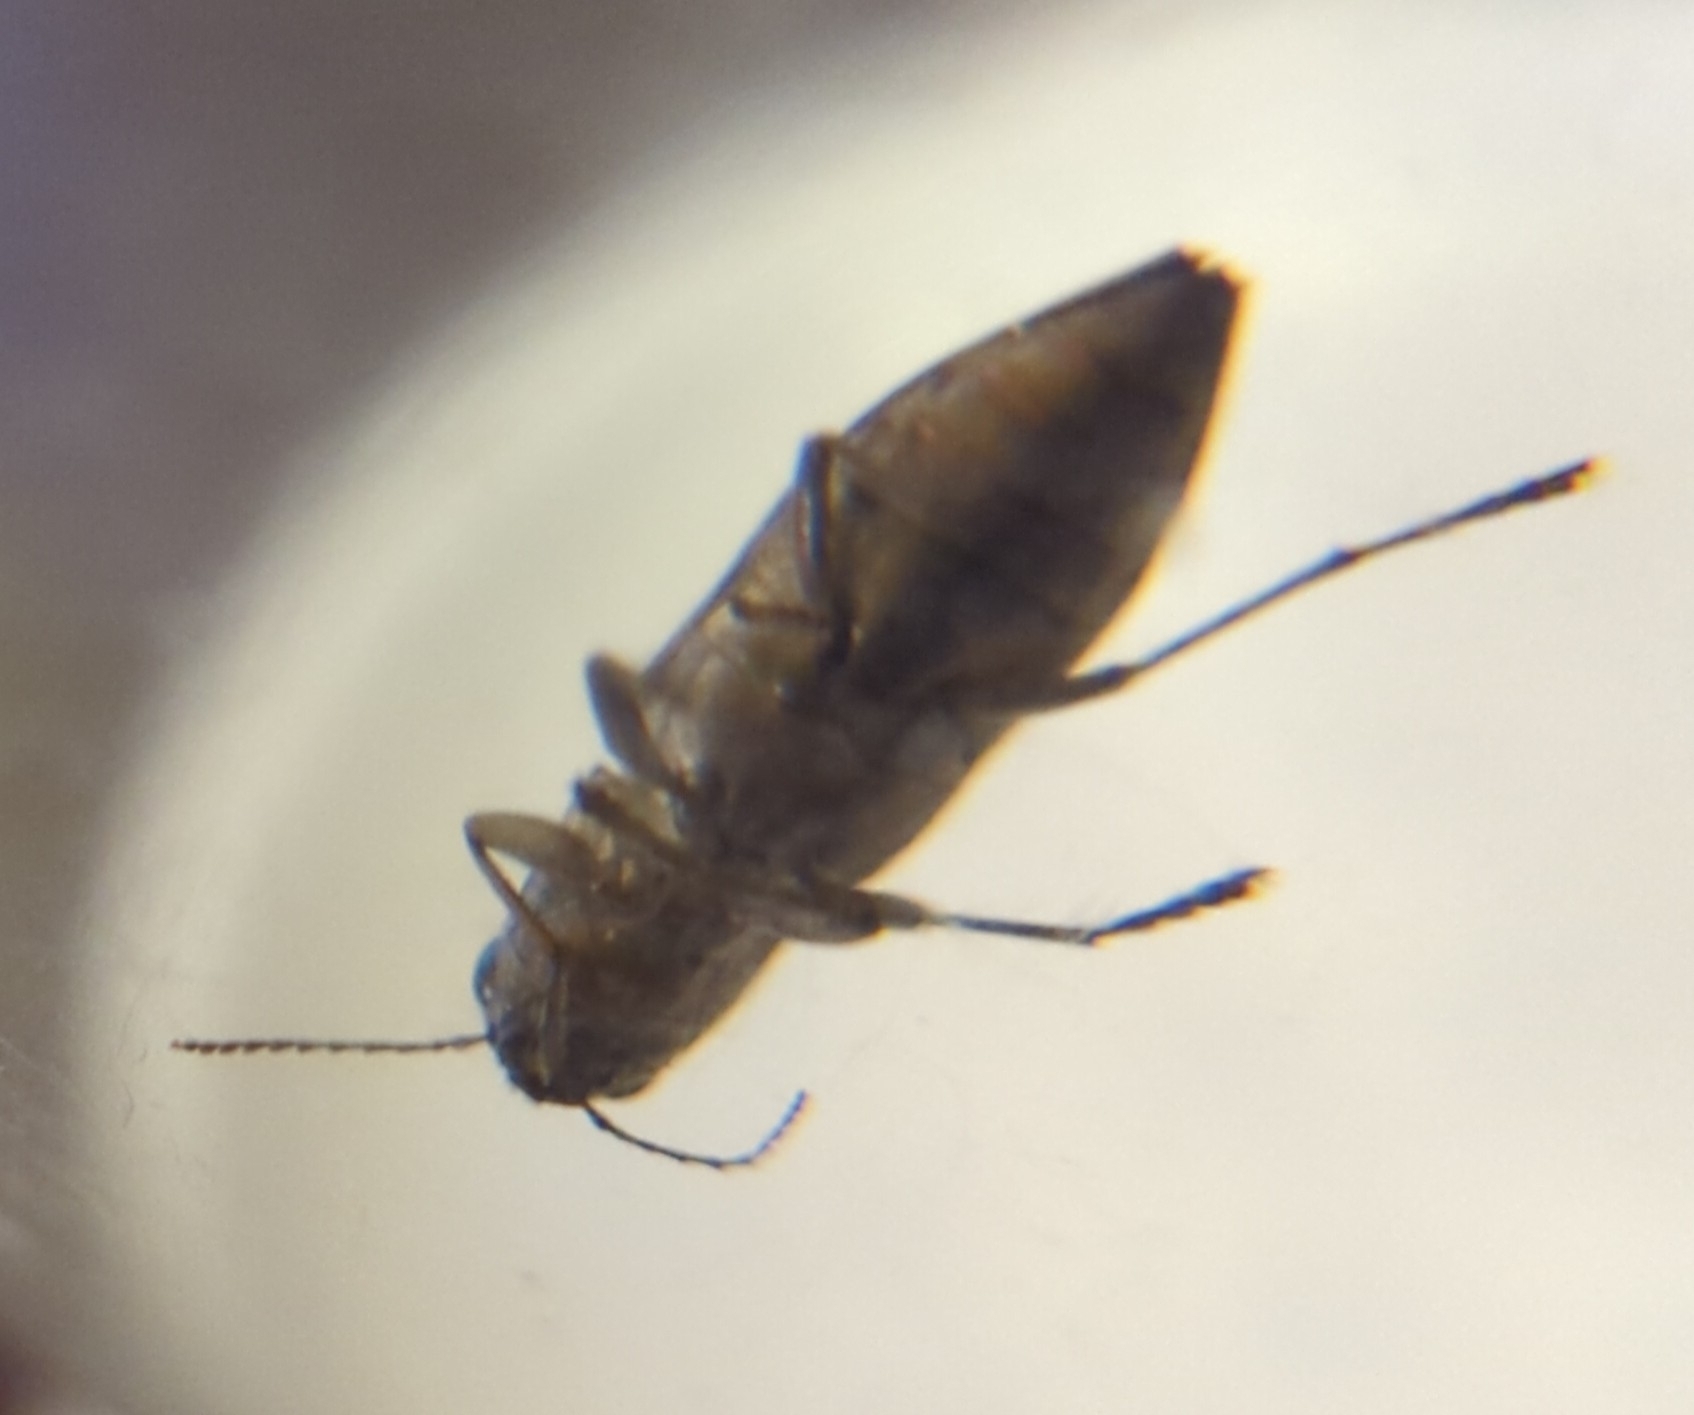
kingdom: Animalia
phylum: Arthropoda
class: Insecta
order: Coleoptera
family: Buprestidae
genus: Spectralia
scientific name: Spectralia gracilipes
